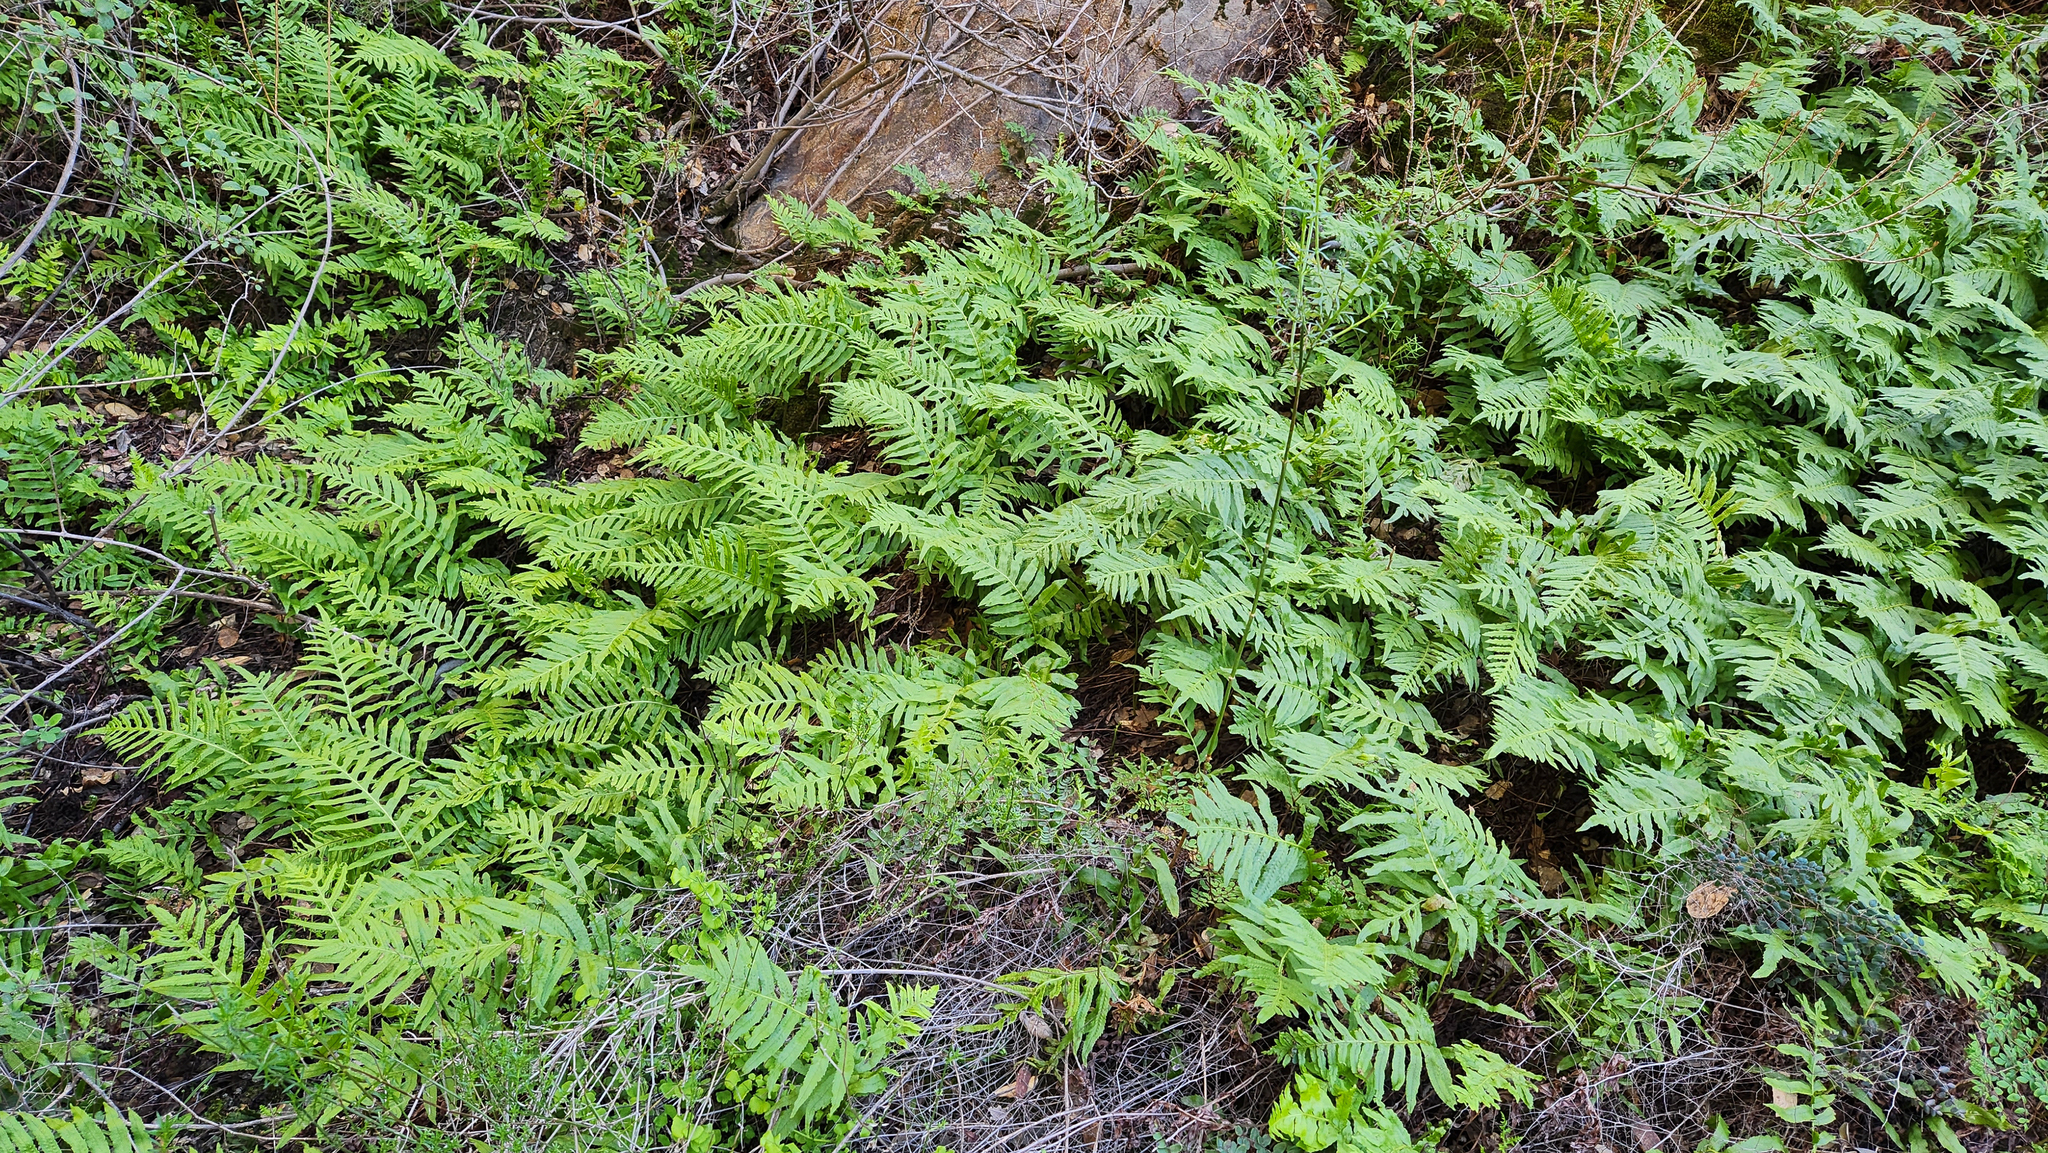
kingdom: Plantae
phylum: Tracheophyta
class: Polypodiopsida
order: Polypodiales
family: Polypodiaceae
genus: Polypodium
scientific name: Polypodium californicum
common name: California polypody
